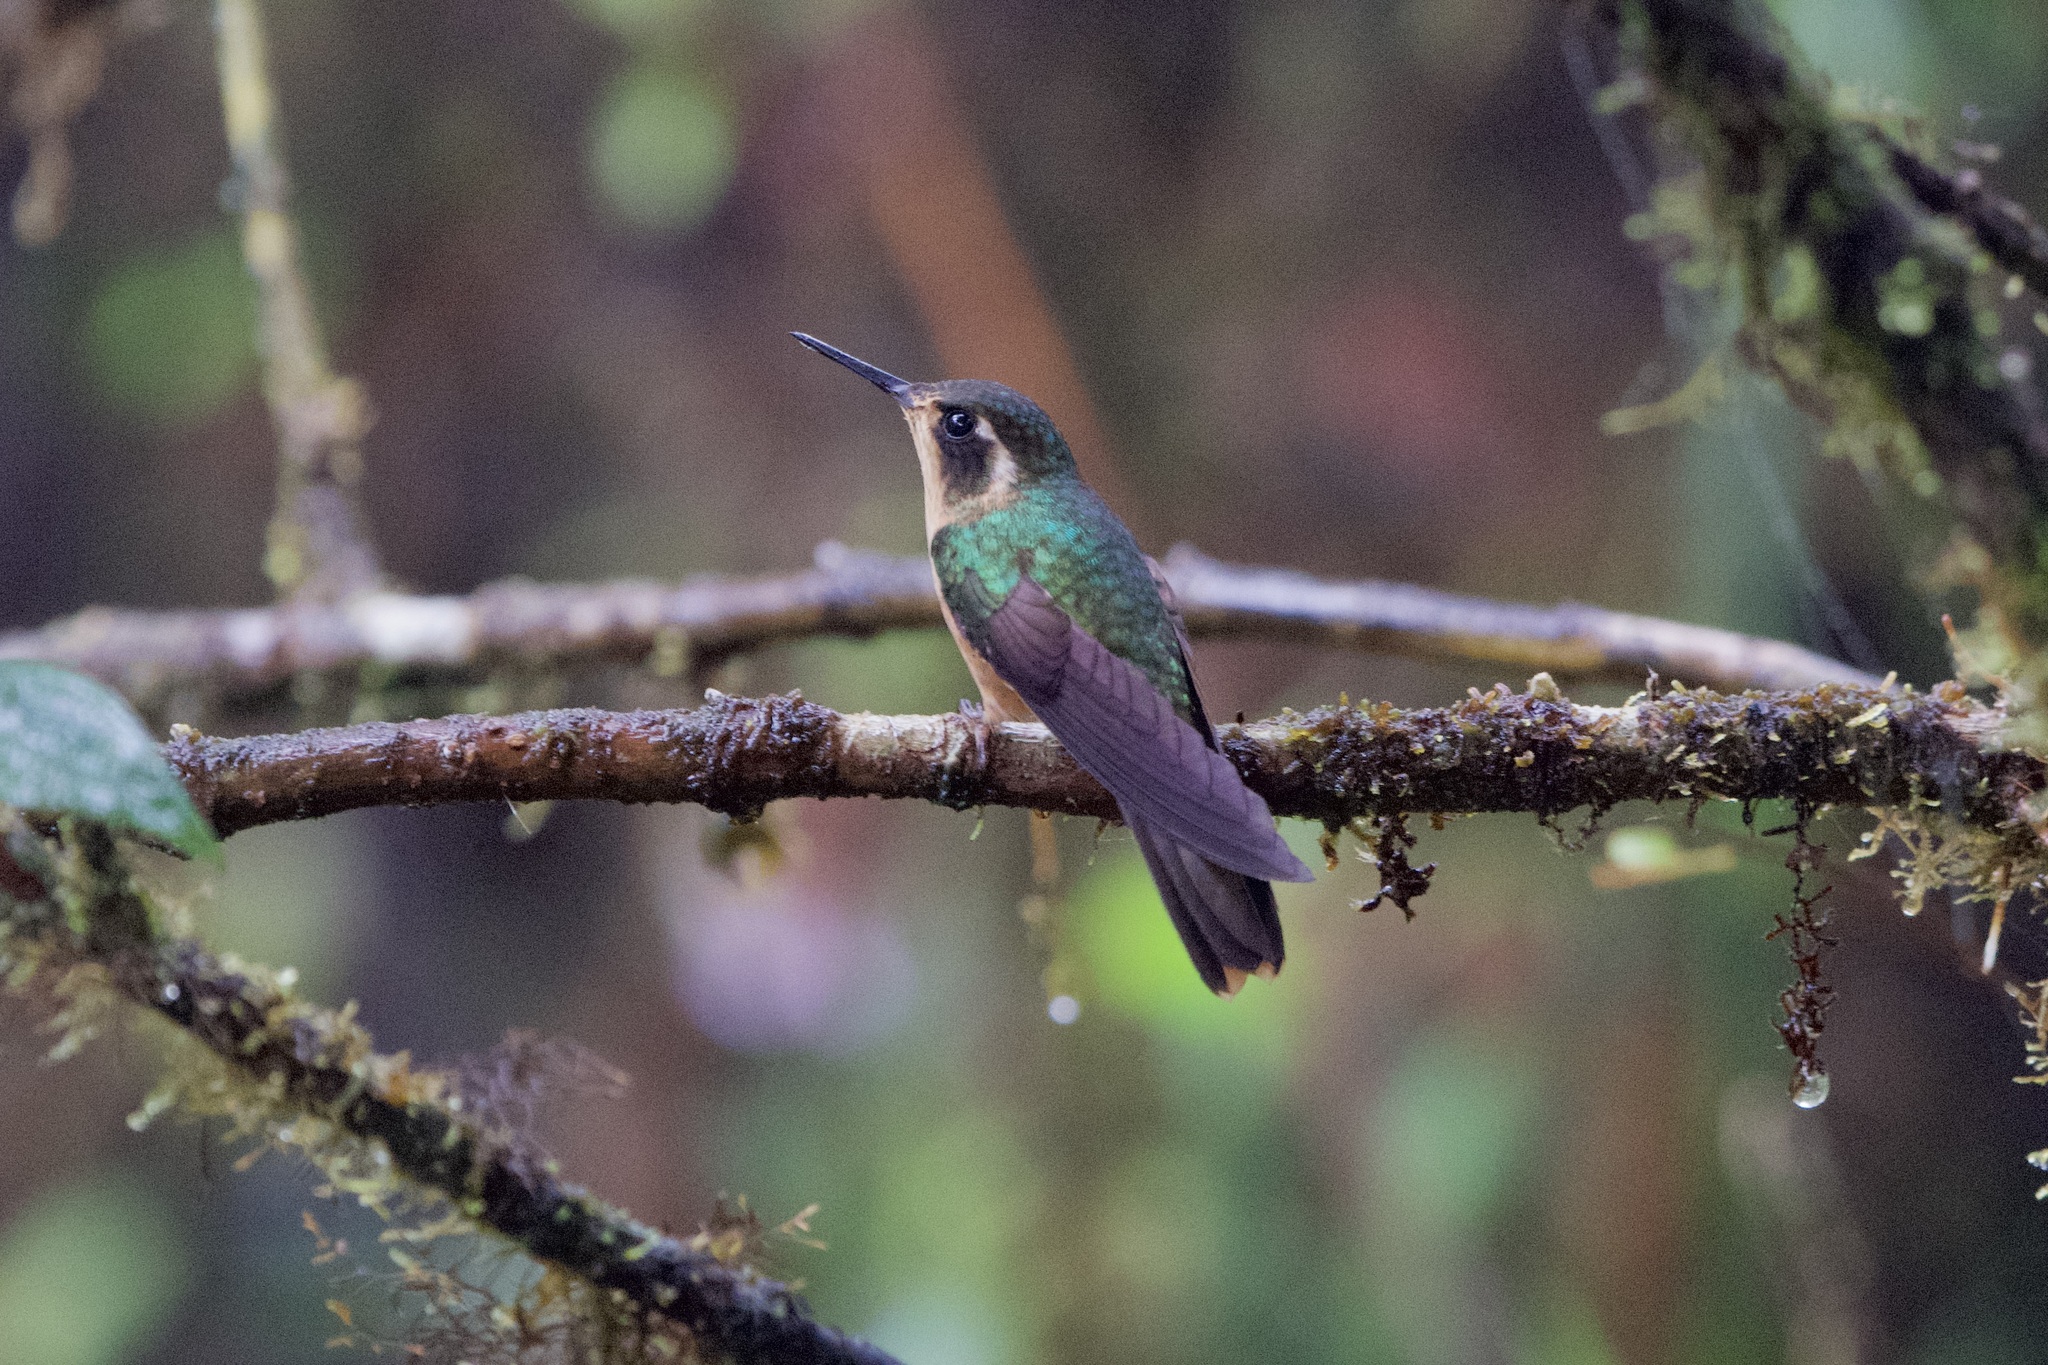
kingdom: Animalia
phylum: Chordata
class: Aves
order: Apodiformes
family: Trochilidae
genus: Adelomyia
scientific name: Adelomyia melanogenys
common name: Speckled hummingbird
